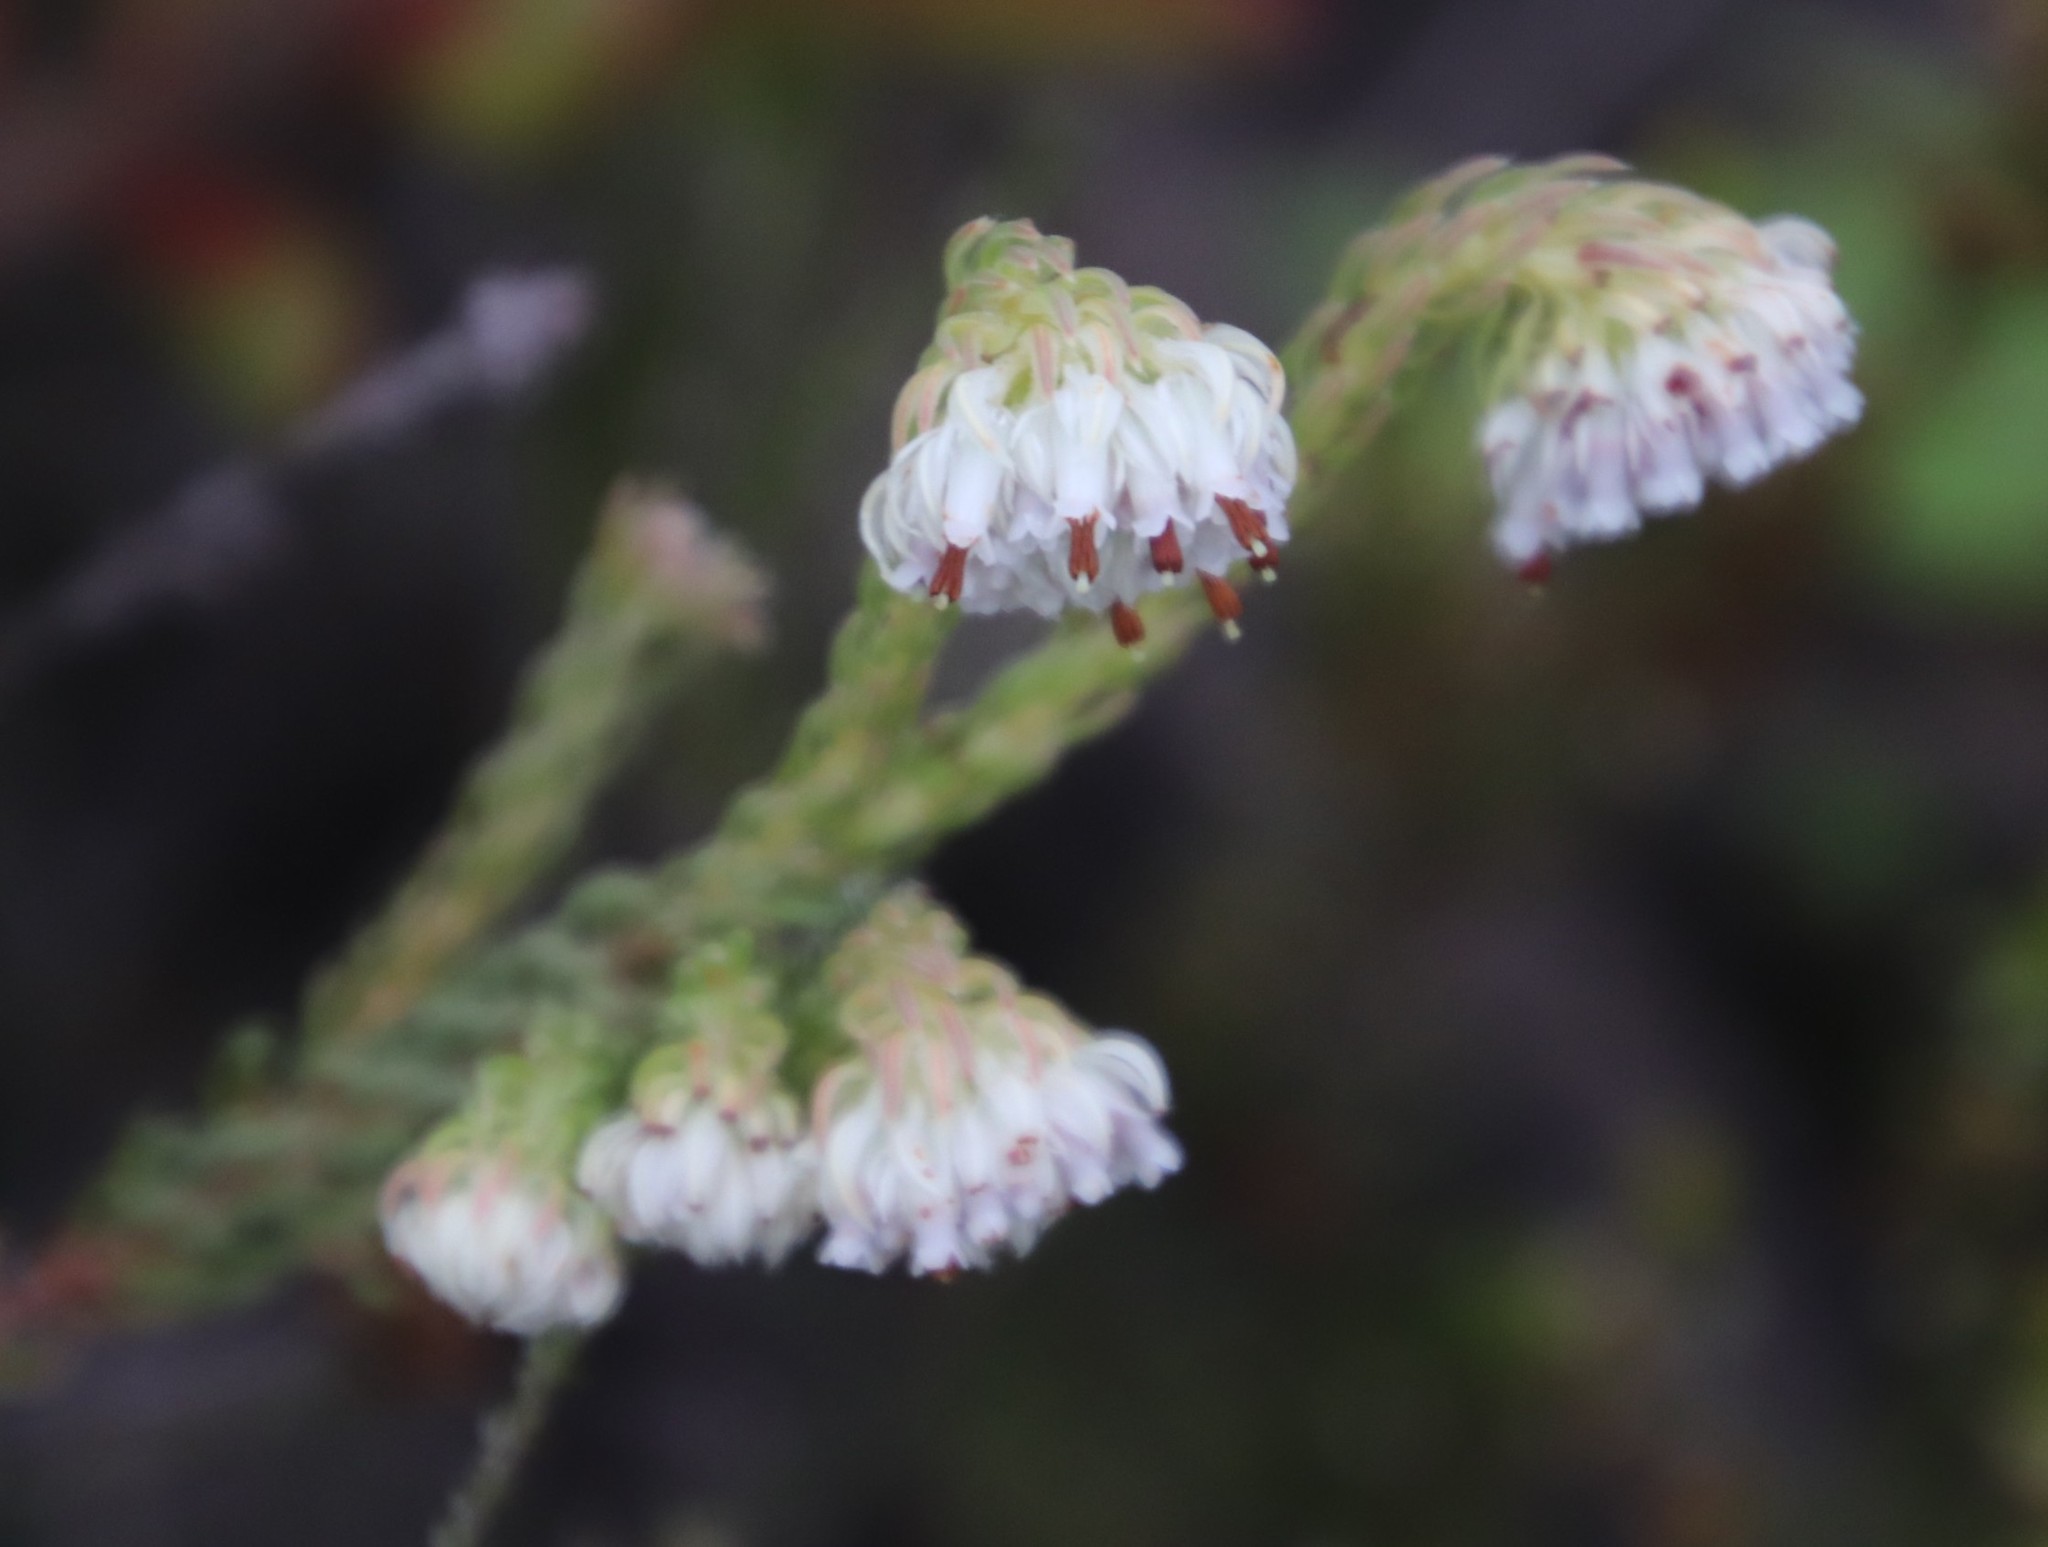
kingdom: Plantae
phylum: Tracheophyta
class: Magnoliopsida
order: Ericales
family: Ericaceae
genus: Erica
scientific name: Erica bruniifolia
